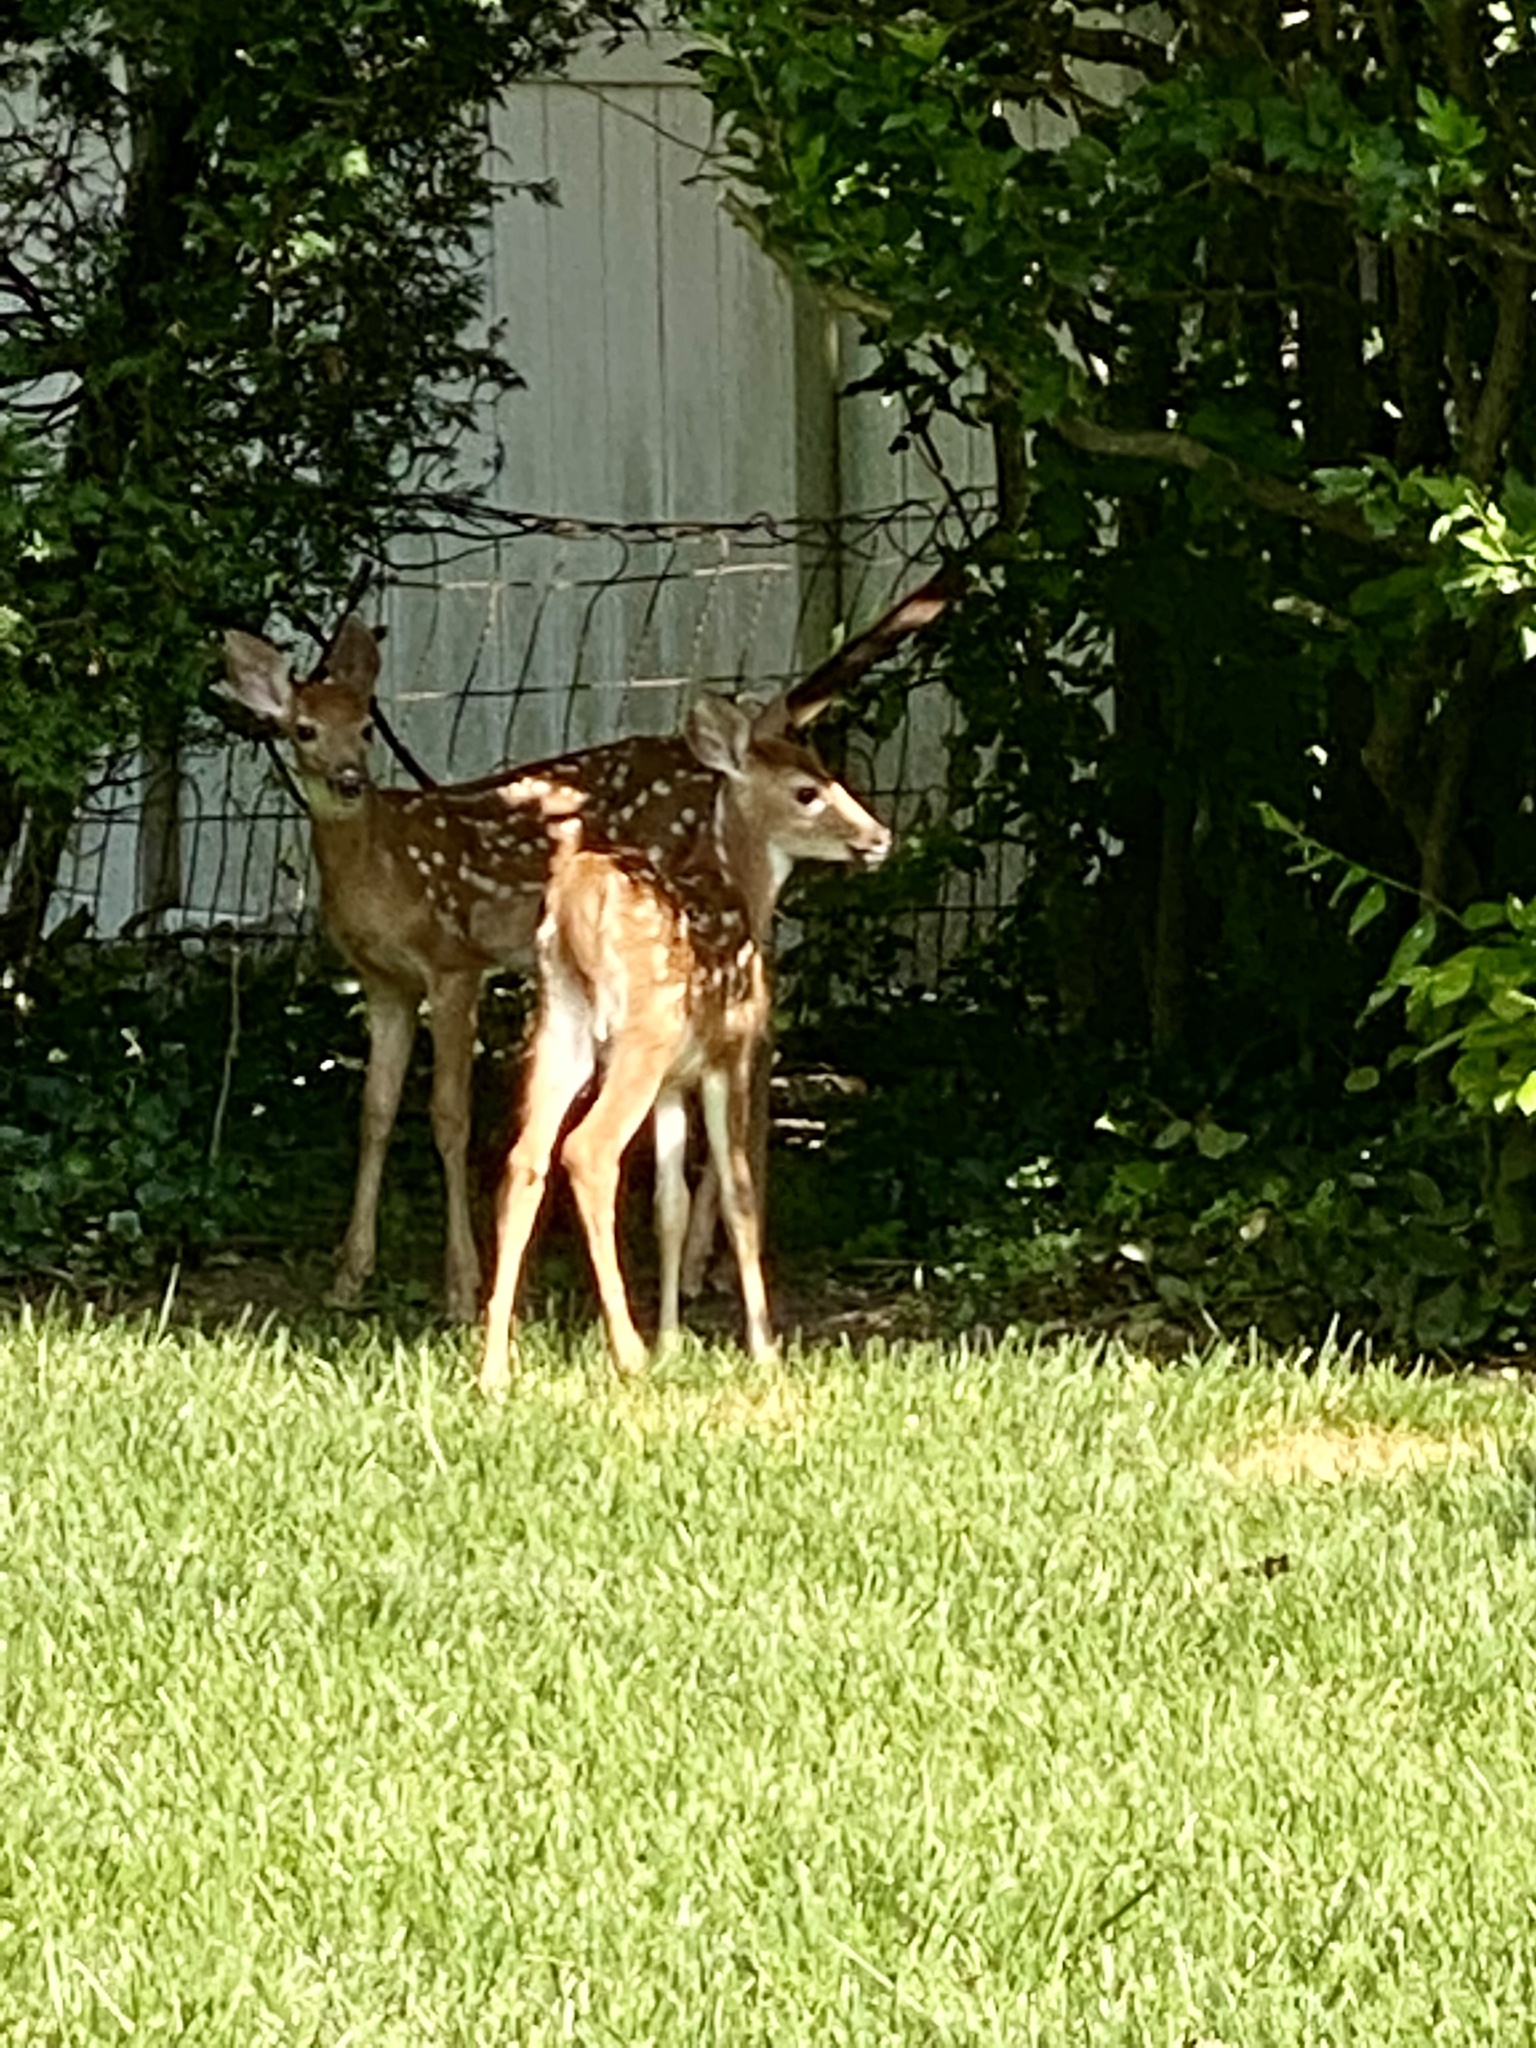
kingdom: Animalia
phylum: Chordata
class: Mammalia
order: Artiodactyla
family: Cervidae
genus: Odocoileus
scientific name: Odocoileus virginianus
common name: White-tailed deer
